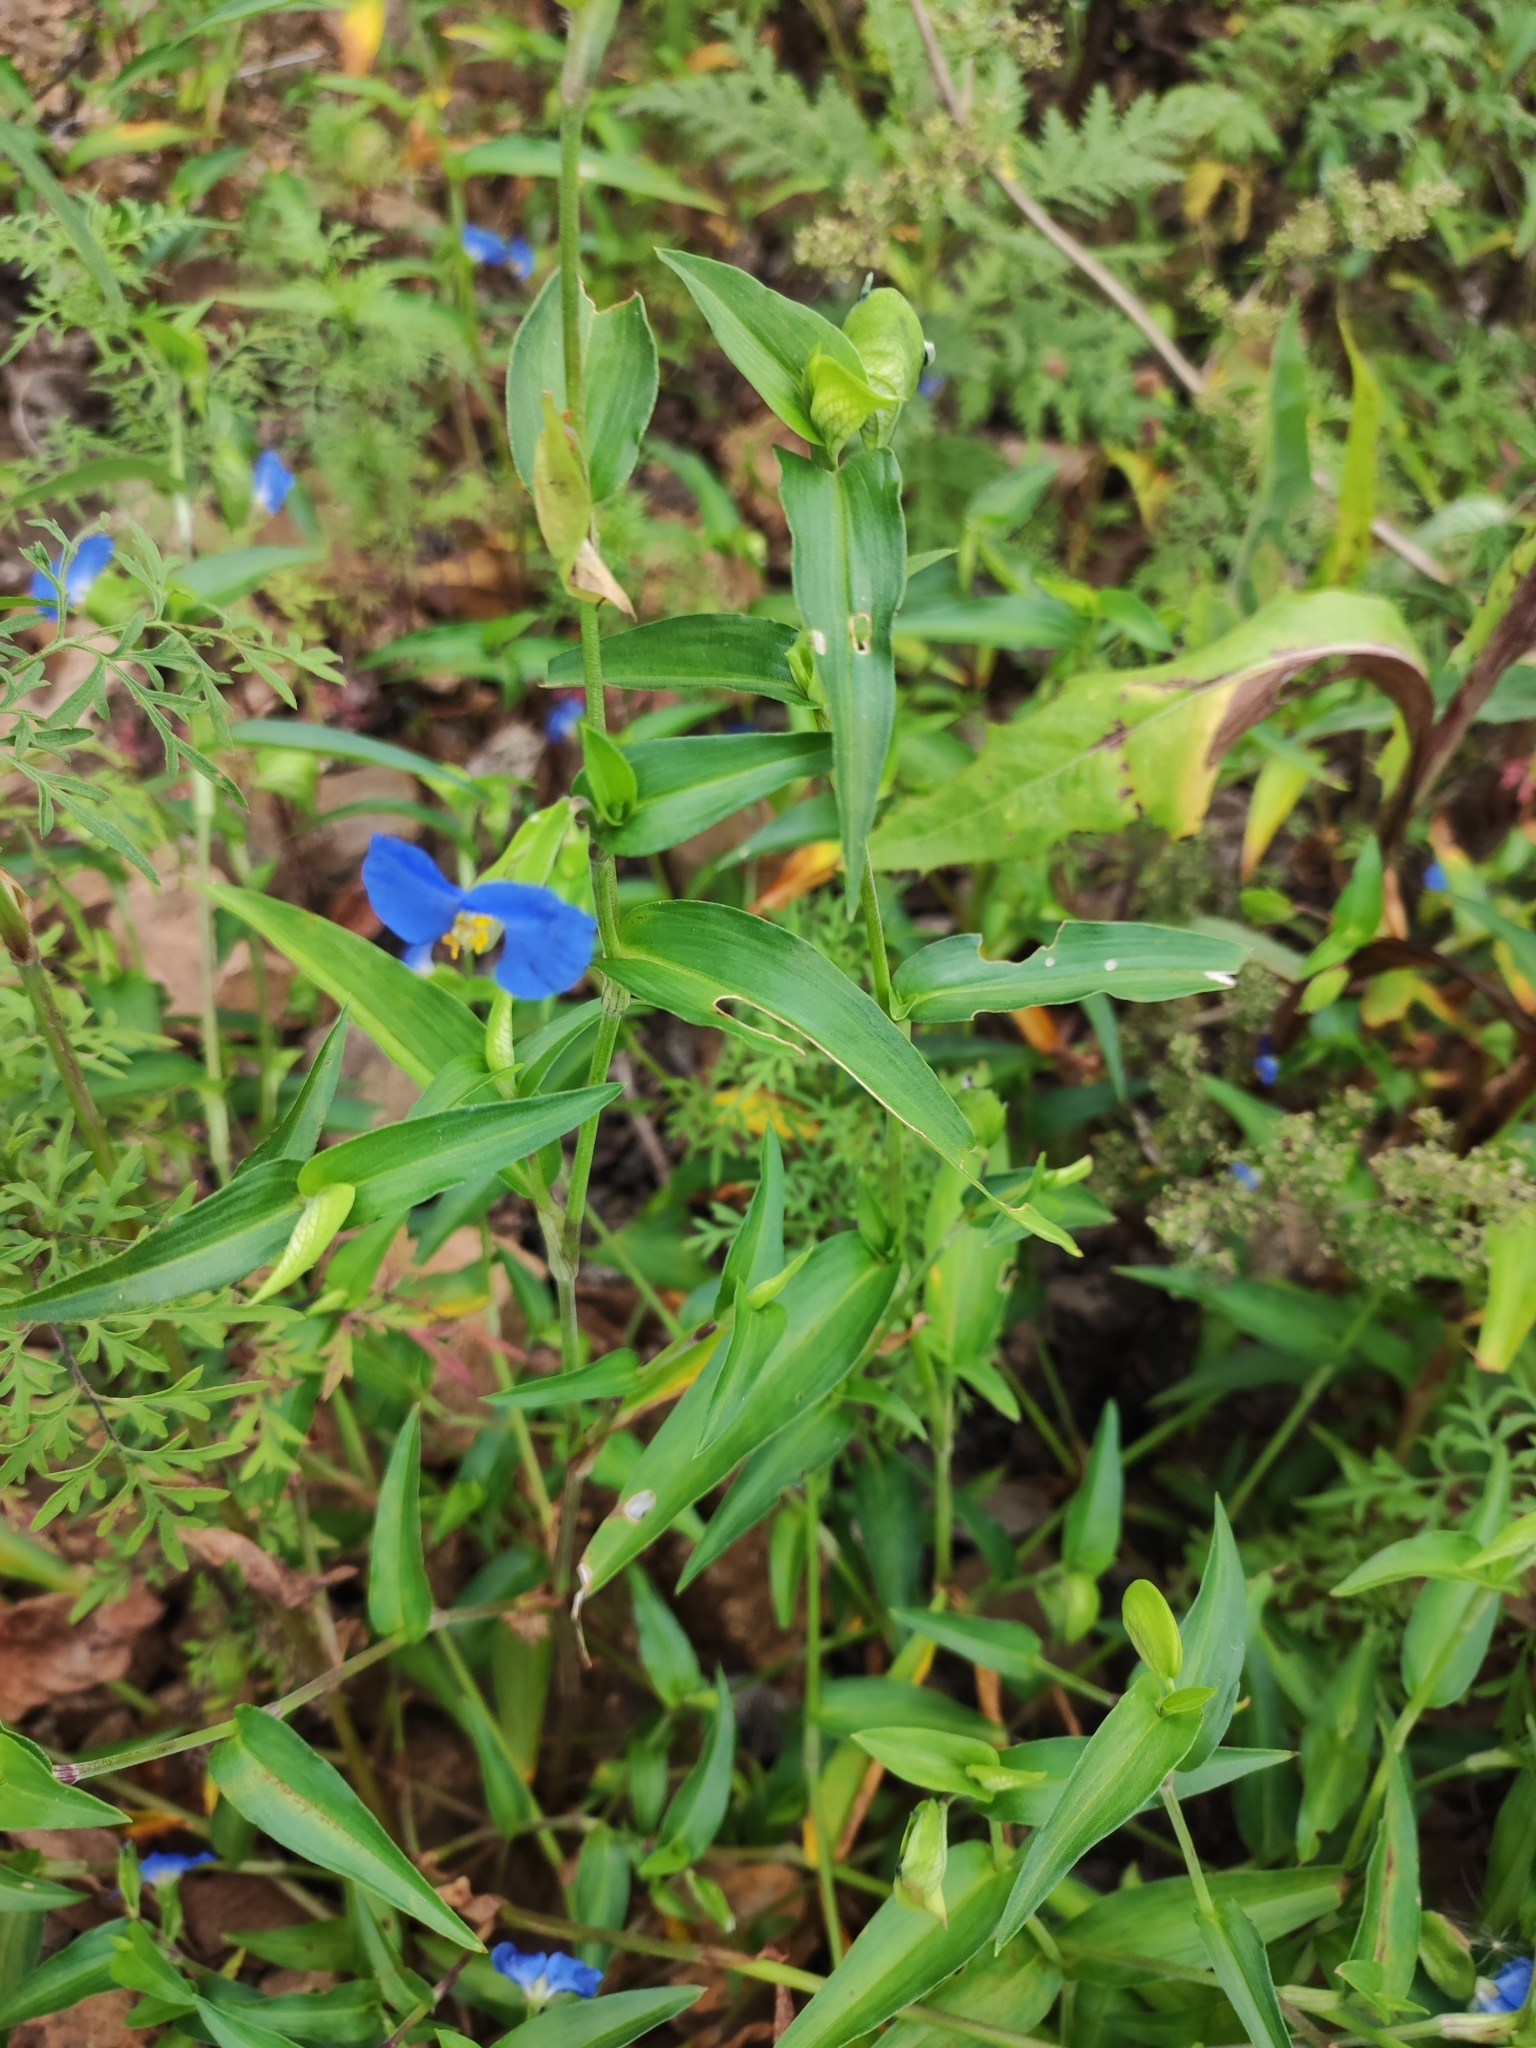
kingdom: Plantae
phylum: Tracheophyta
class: Liliopsida
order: Commelinales
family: Commelinaceae
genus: Commelina
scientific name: Commelina communis
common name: Asiatic dayflower
